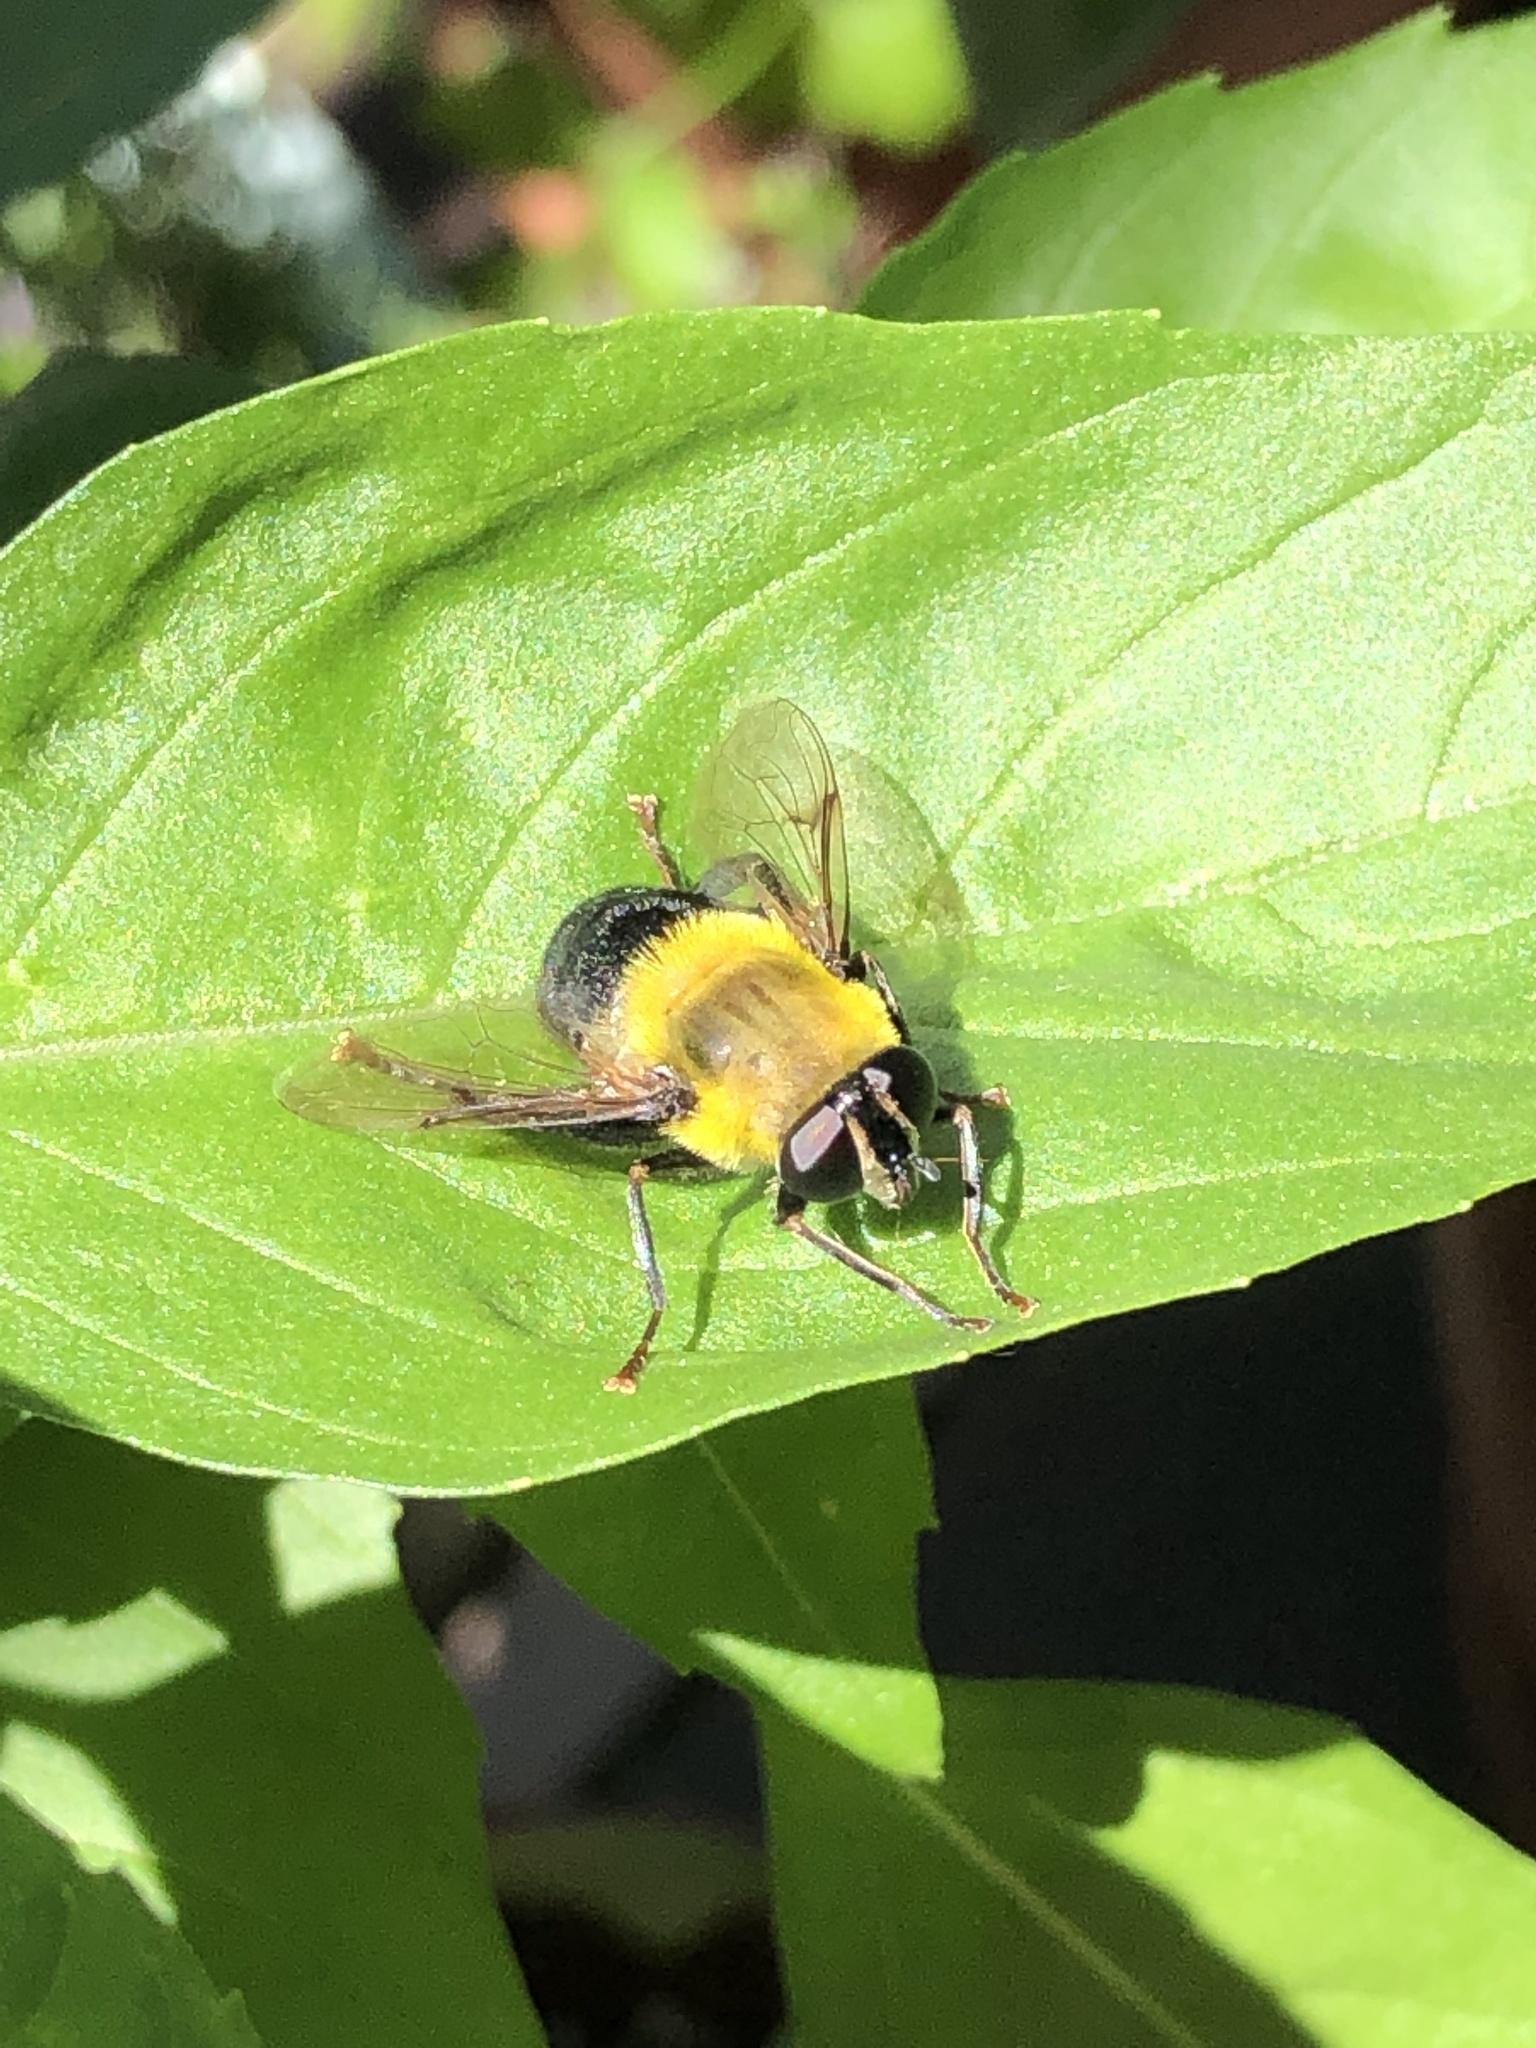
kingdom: Animalia
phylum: Arthropoda
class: Insecta
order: Diptera
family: Syrphidae
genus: Imatisma
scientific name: Imatisma bautias
